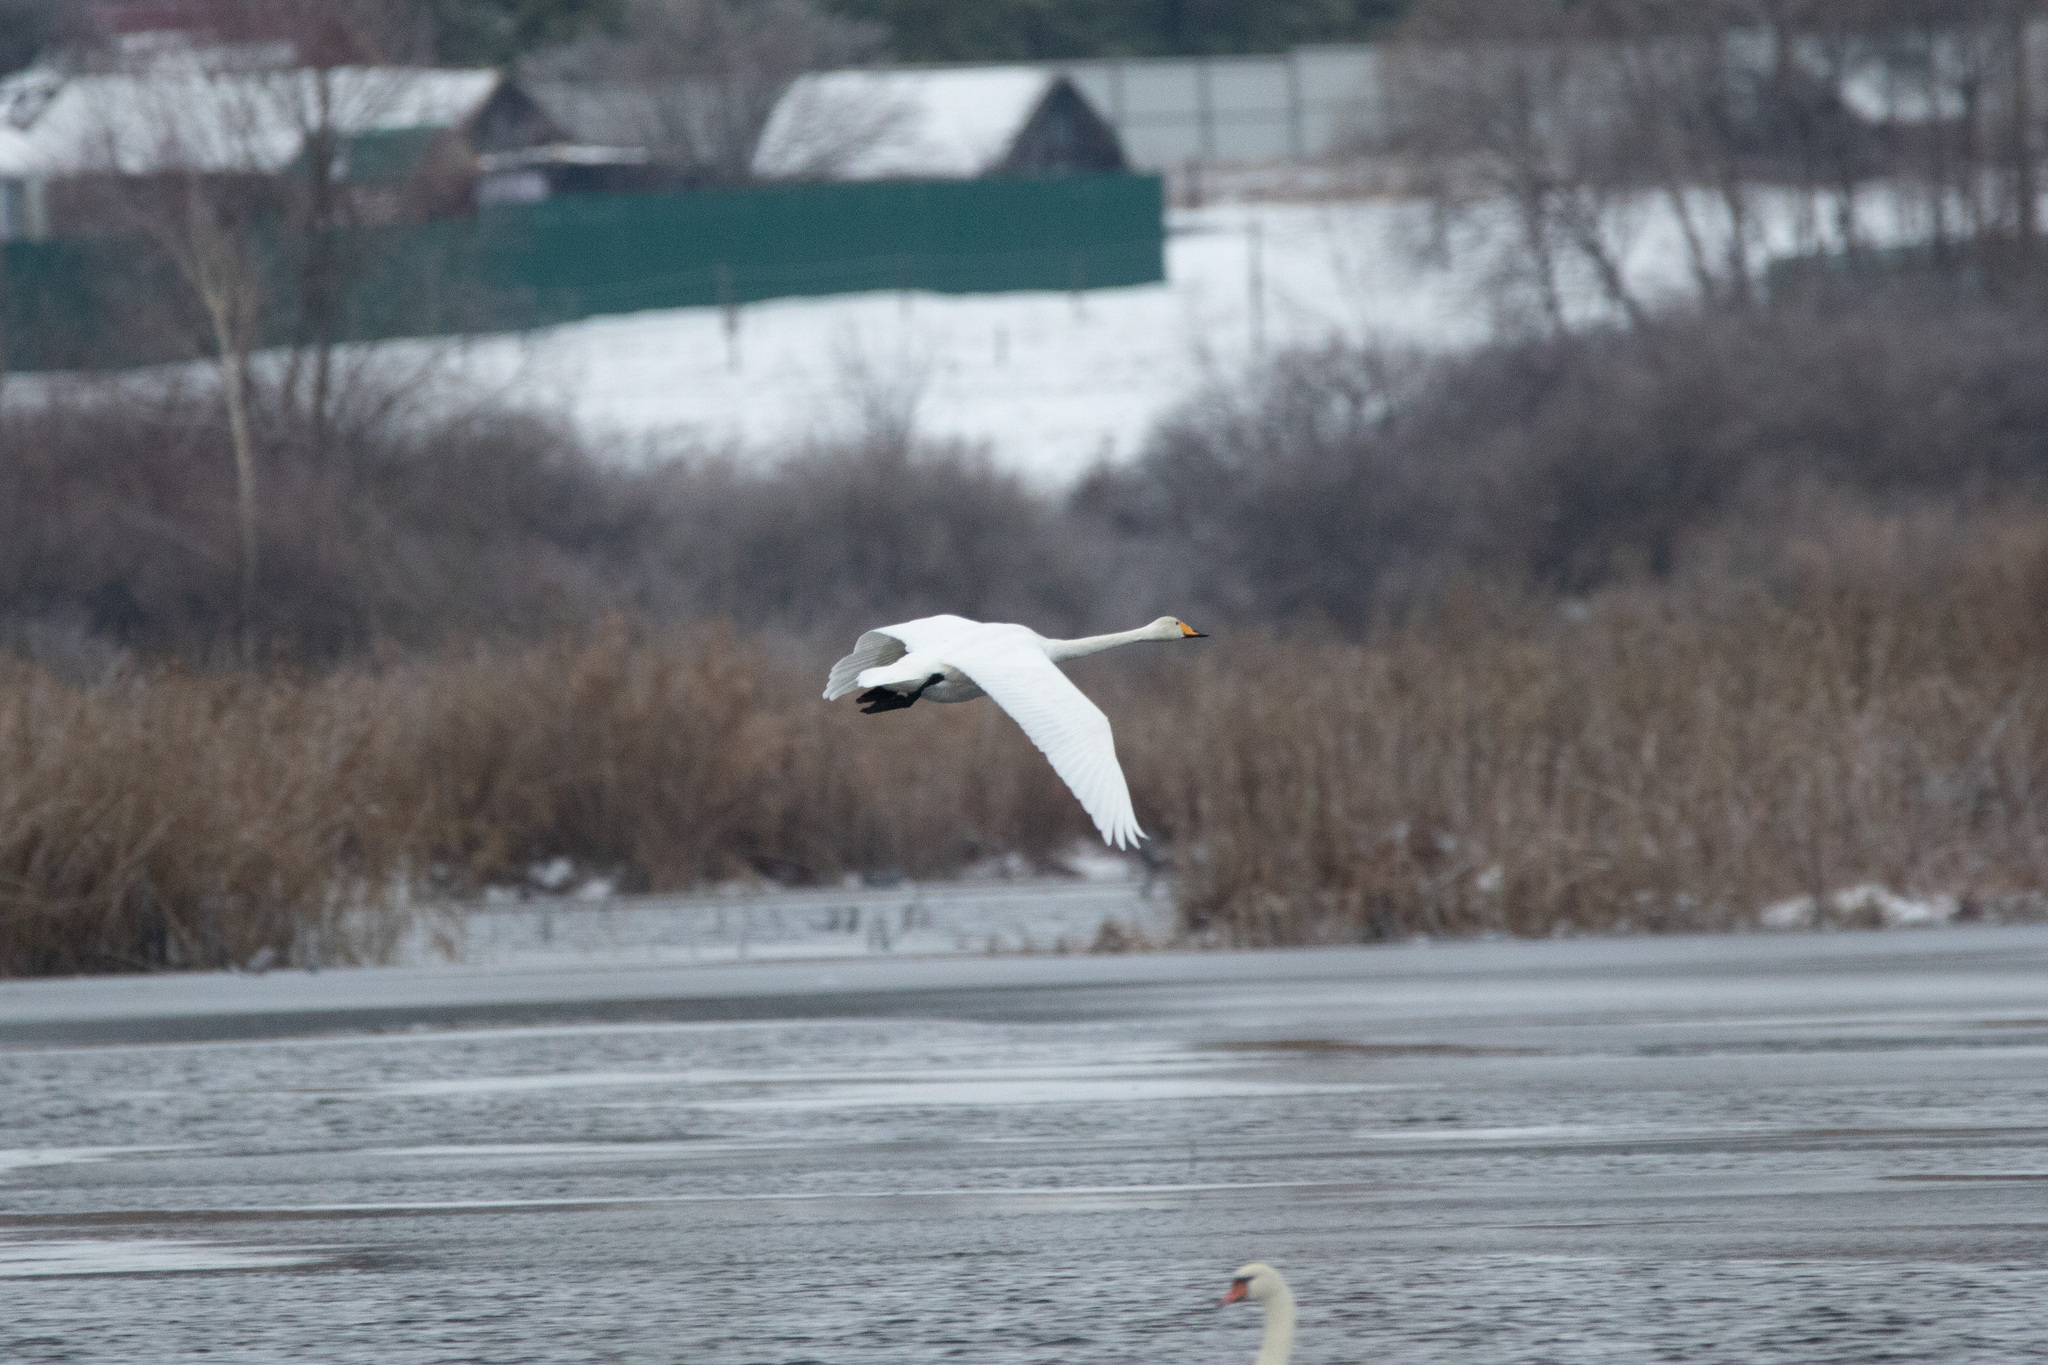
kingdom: Animalia
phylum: Chordata
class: Aves
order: Anseriformes
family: Anatidae
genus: Cygnus
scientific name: Cygnus cygnus
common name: Whooper swan
